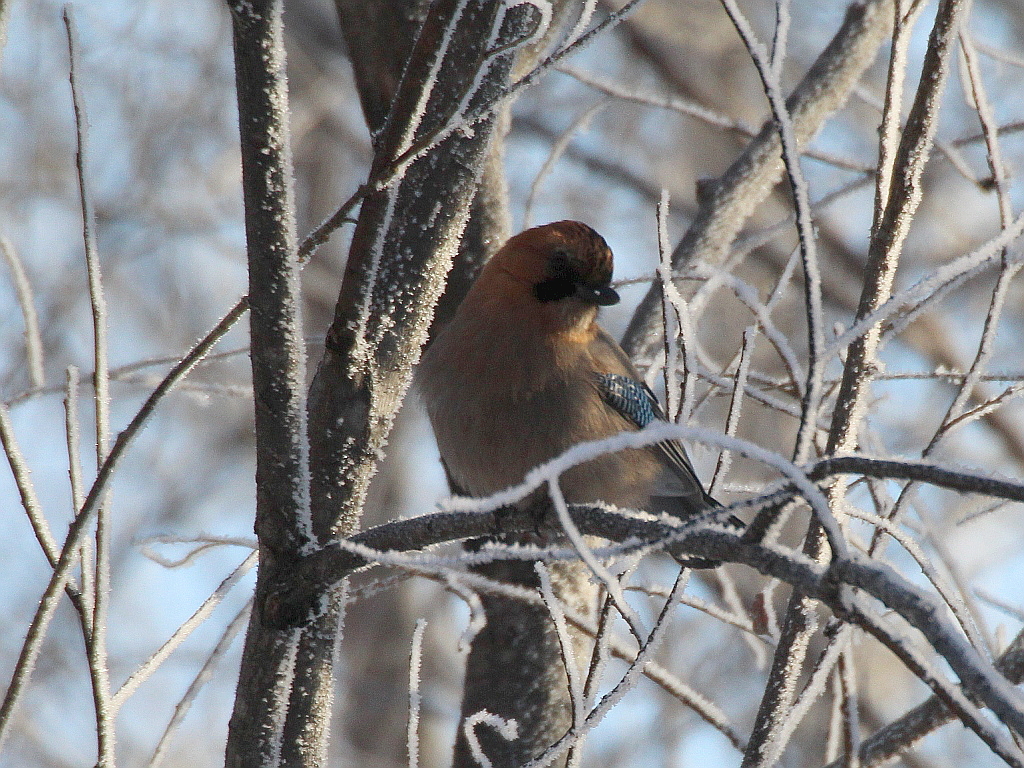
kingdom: Animalia
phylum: Chordata
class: Aves
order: Passeriformes
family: Corvidae
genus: Garrulus
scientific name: Garrulus glandarius
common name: Eurasian jay
